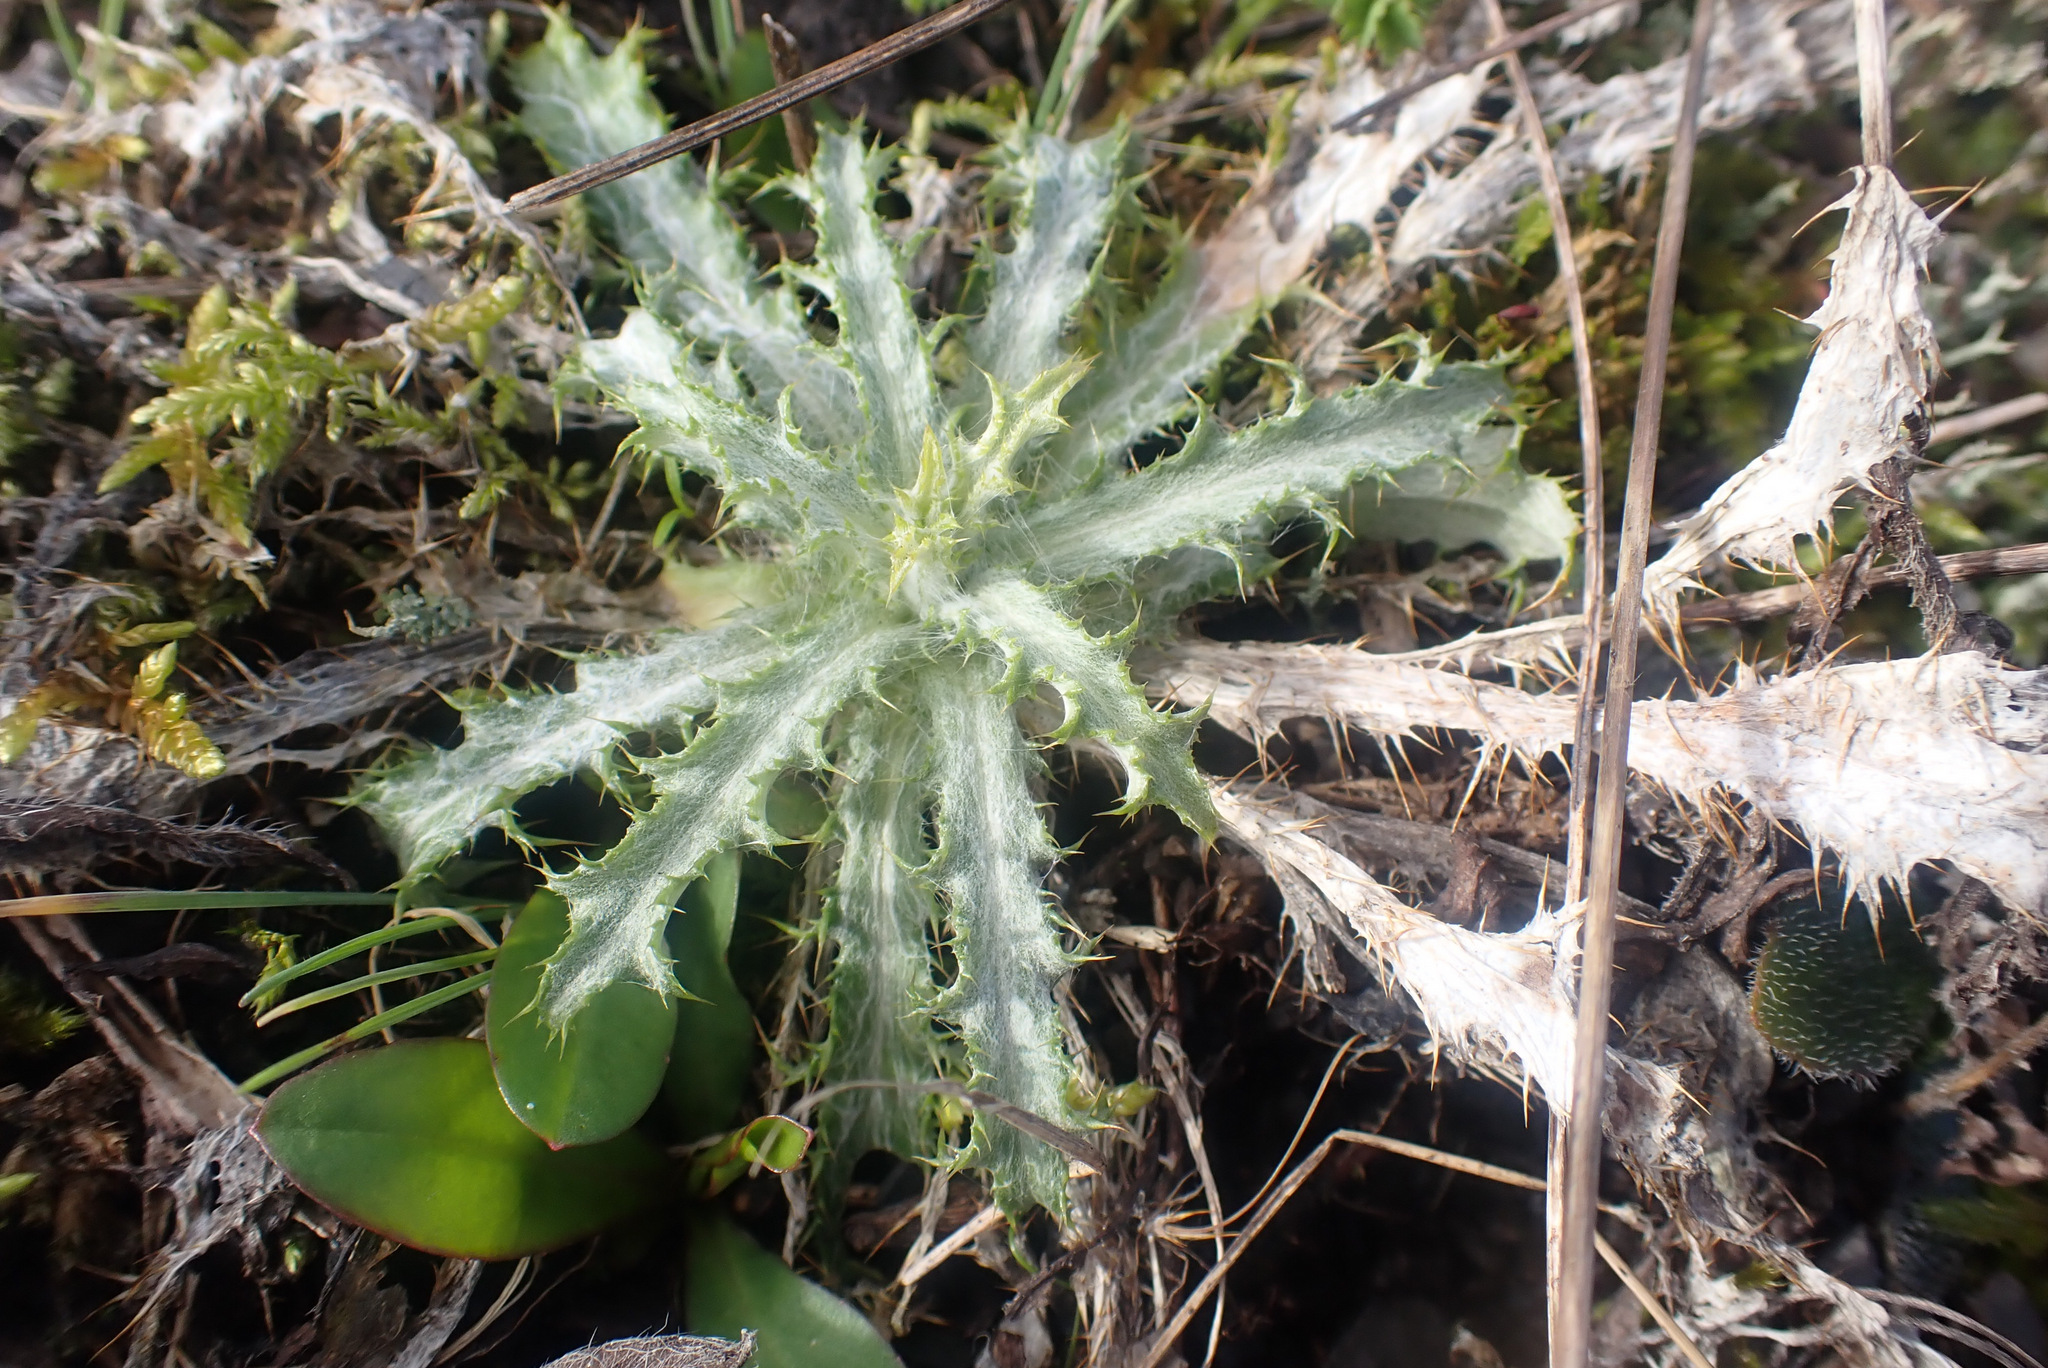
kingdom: Plantae
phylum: Tracheophyta
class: Magnoliopsida
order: Asterales
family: Asteraceae
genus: Carlina
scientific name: Carlina vulgaris
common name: Carline thistle
